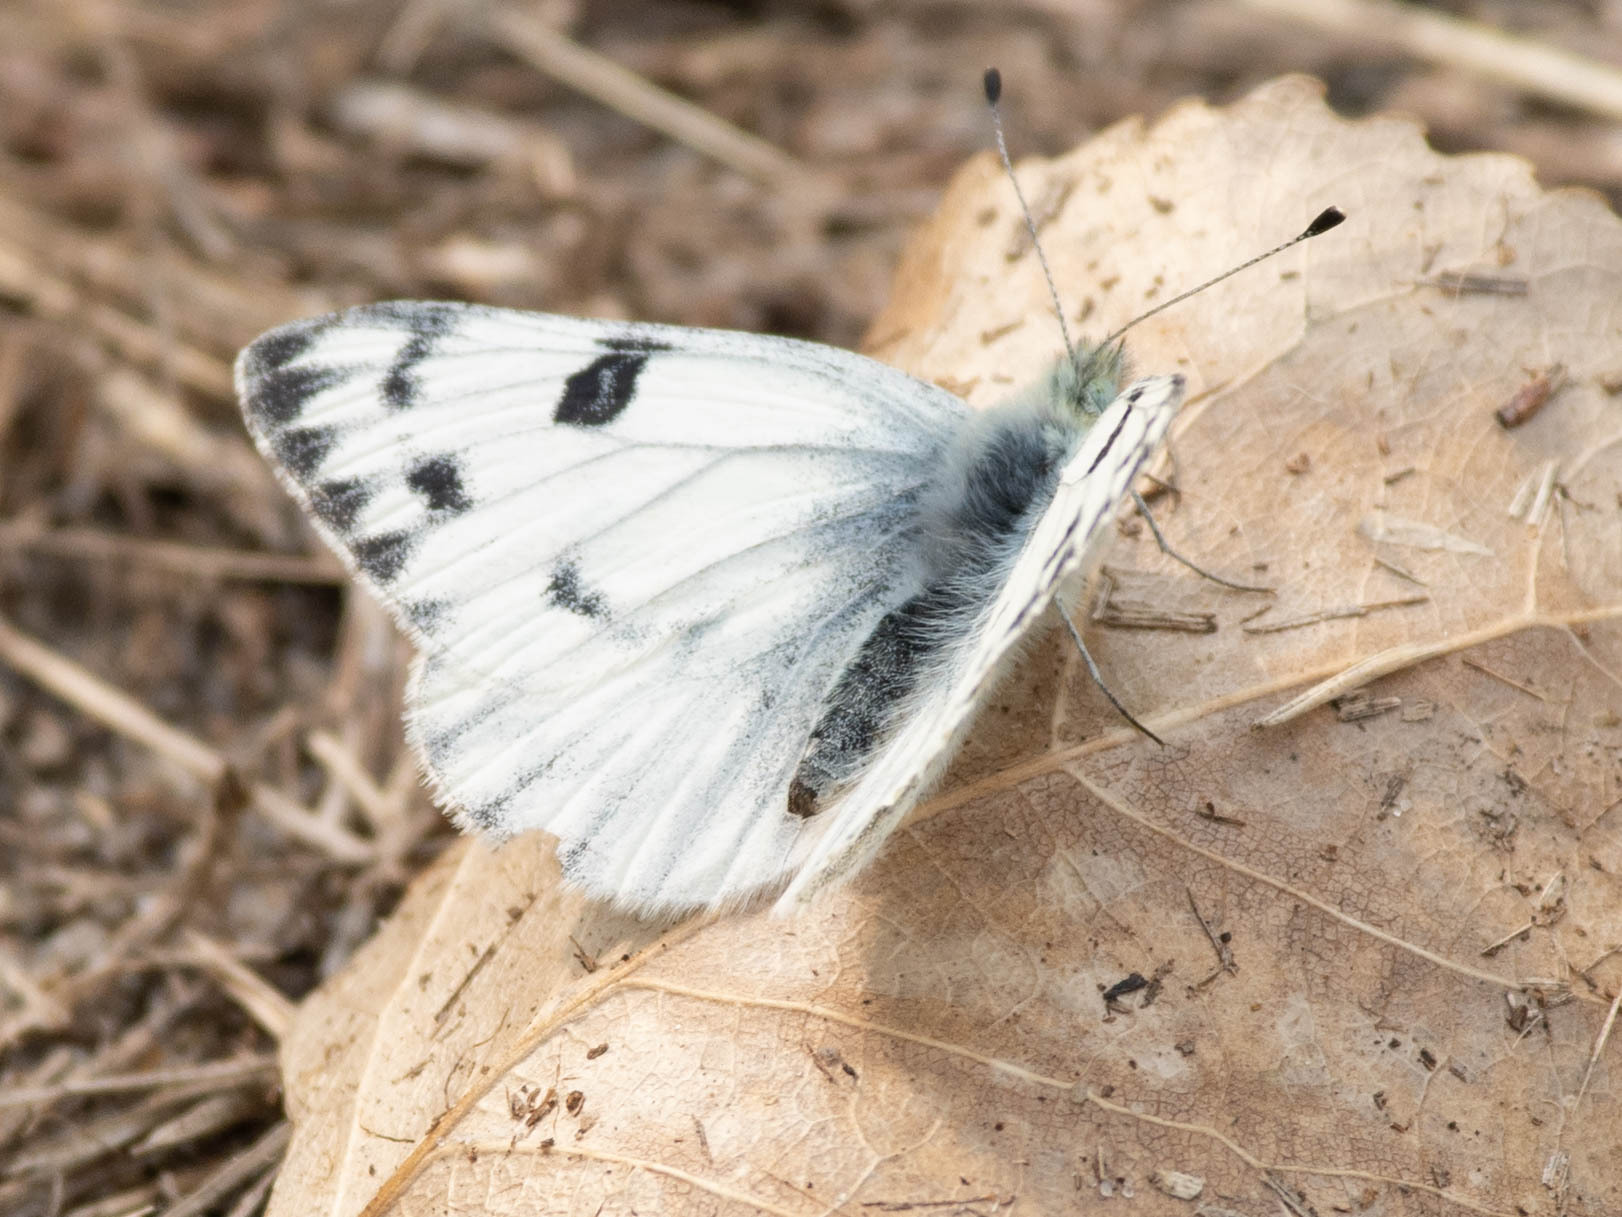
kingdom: Animalia
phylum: Arthropoda
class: Insecta
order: Lepidoptera
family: Pieridae
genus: Pontia
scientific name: Pontia occidentalis
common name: Western white
